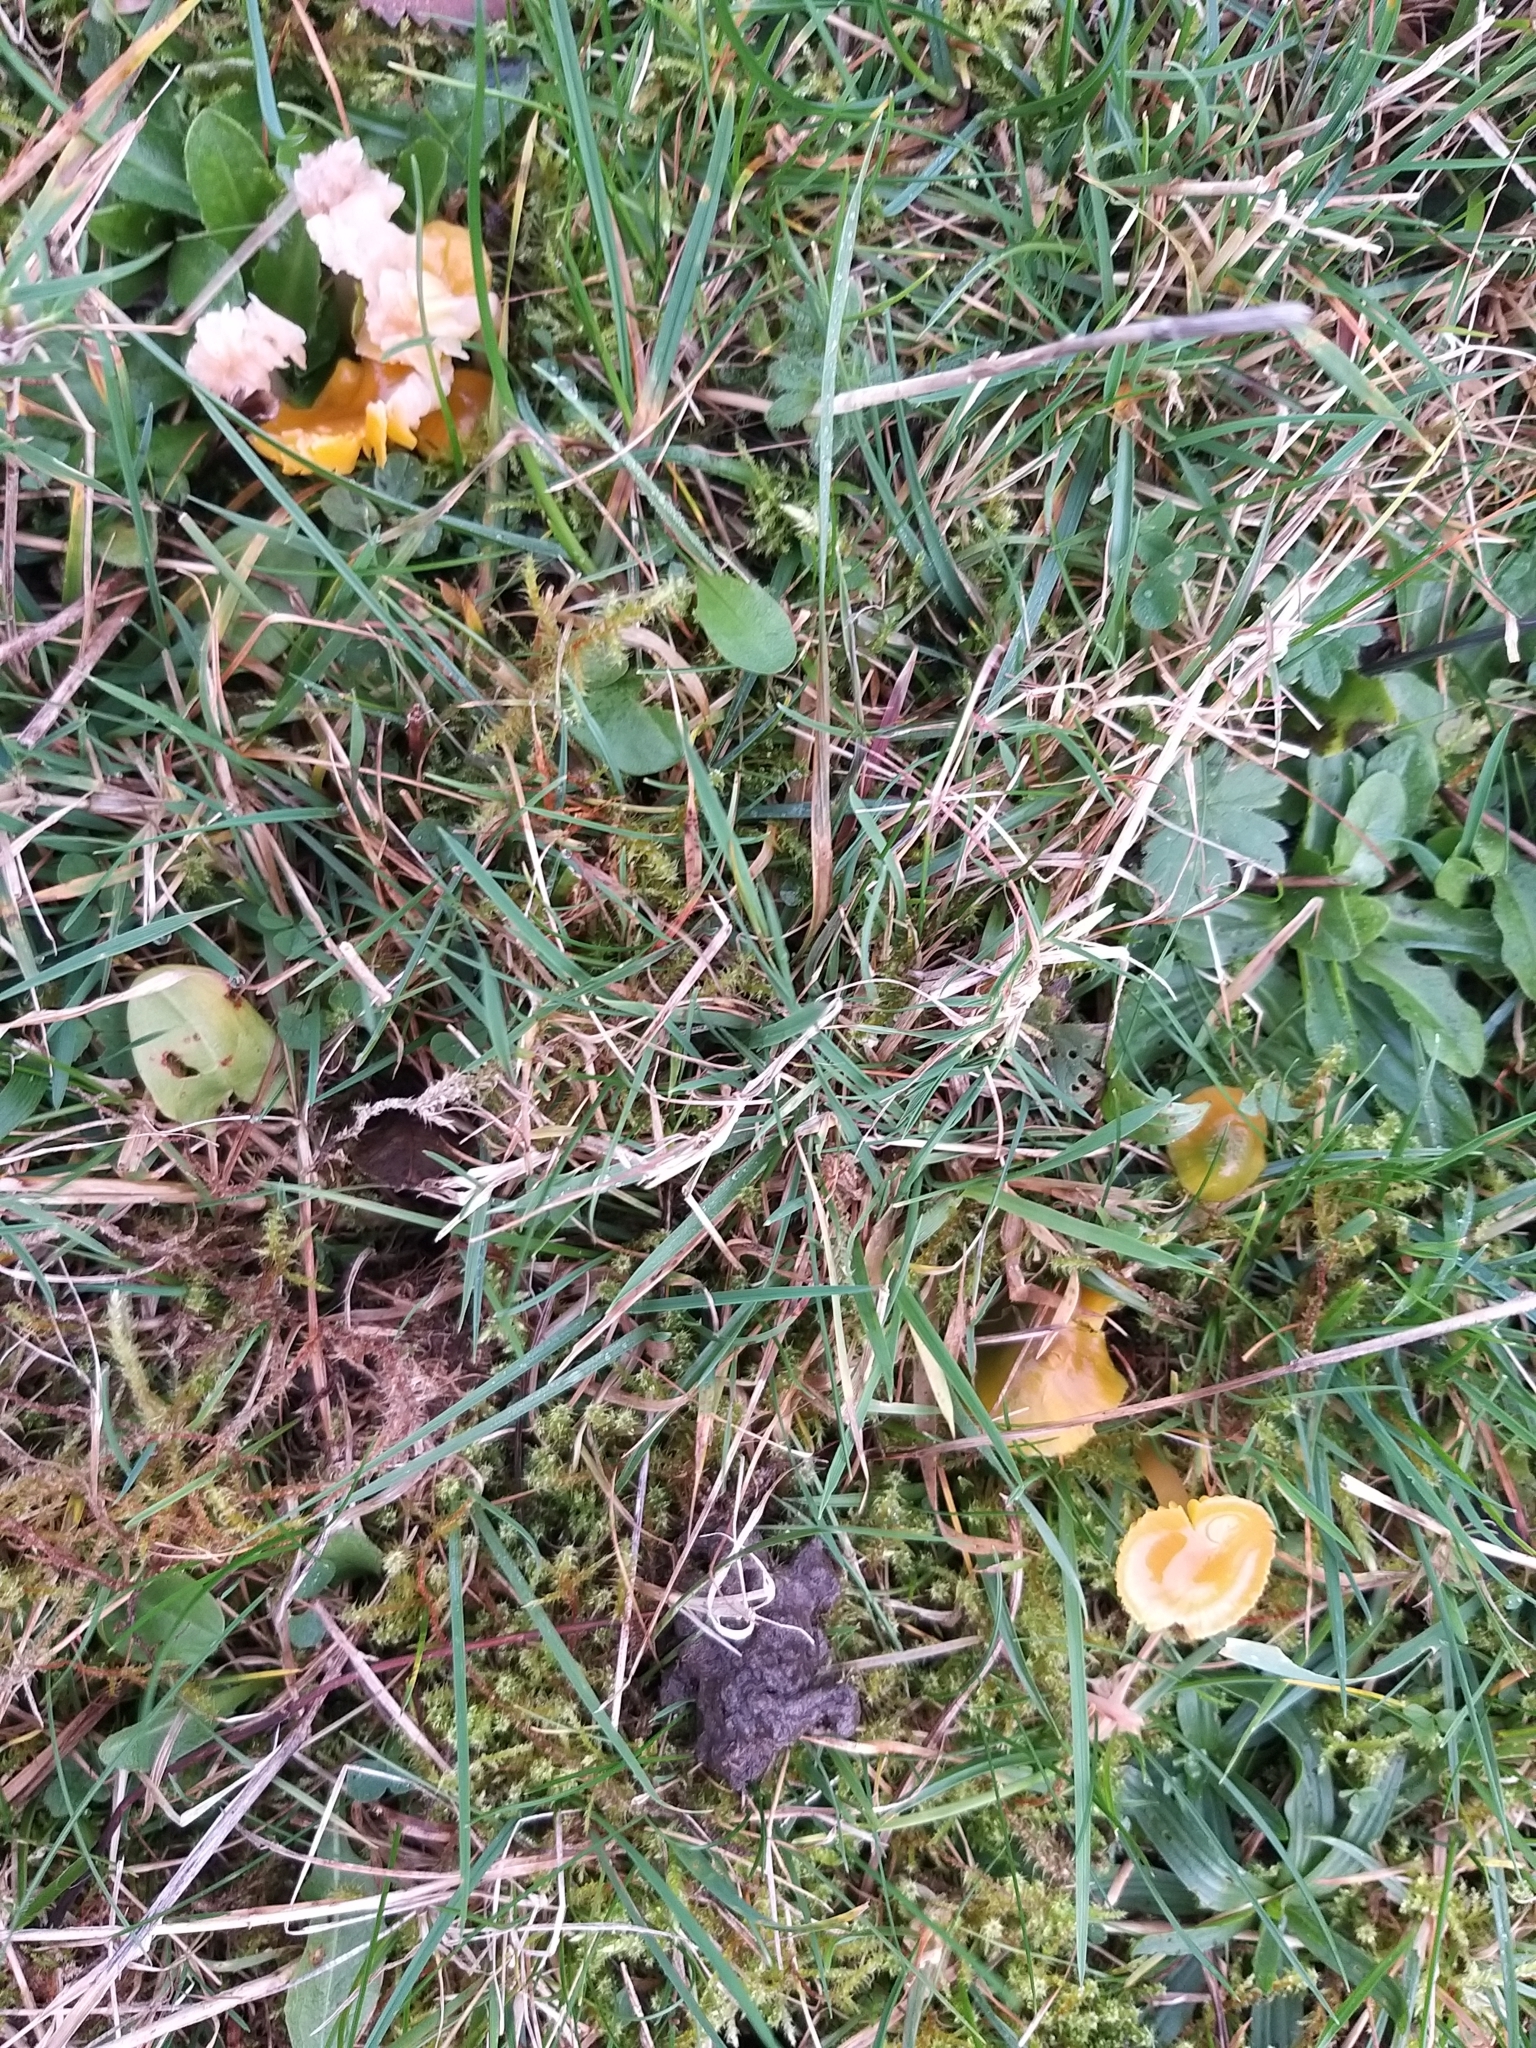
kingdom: Fungi
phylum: Basidiomycota
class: Agaricomycetes
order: Agaricales
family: Hygrophoraceae
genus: Gliophorus
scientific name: Gliophorus psittacinus
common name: Parrot wax-cap
